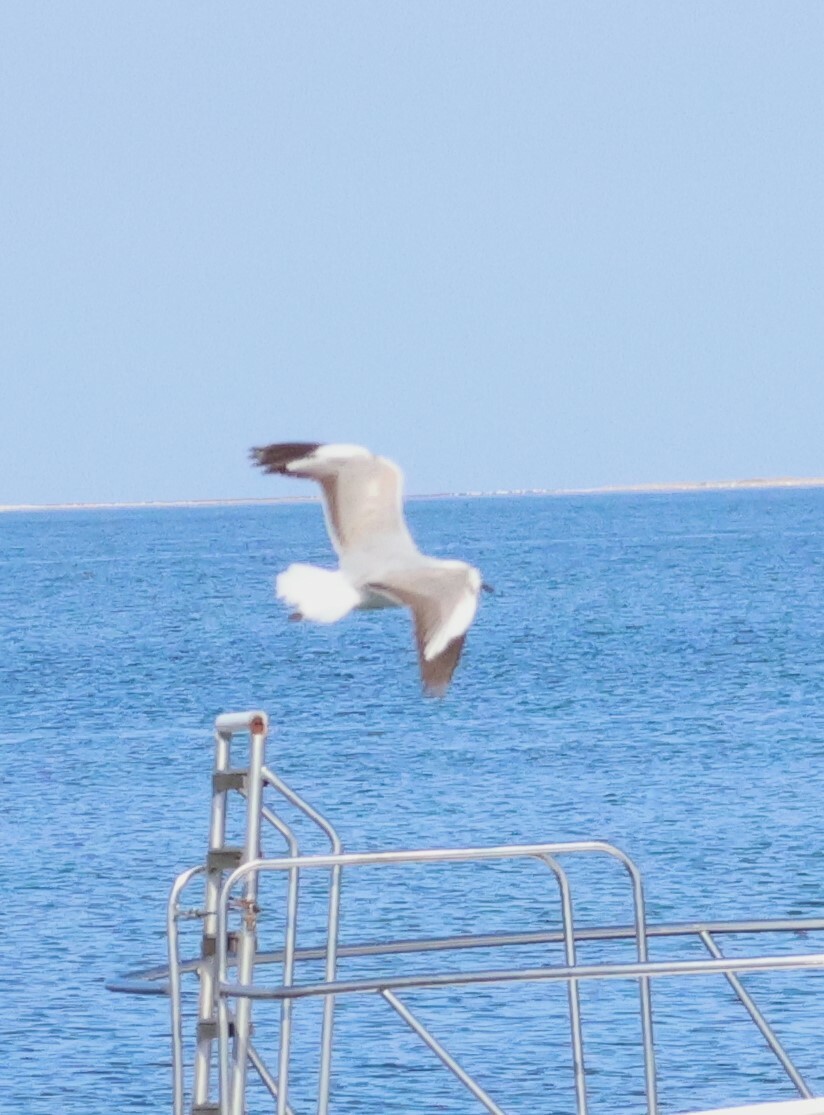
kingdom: Animalia
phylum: Chordata
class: Aves
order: Charadriiformes
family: Laridae
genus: Chroicocephalus
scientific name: Chroicocephalus hartlaubii
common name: Hartlaub's gull
